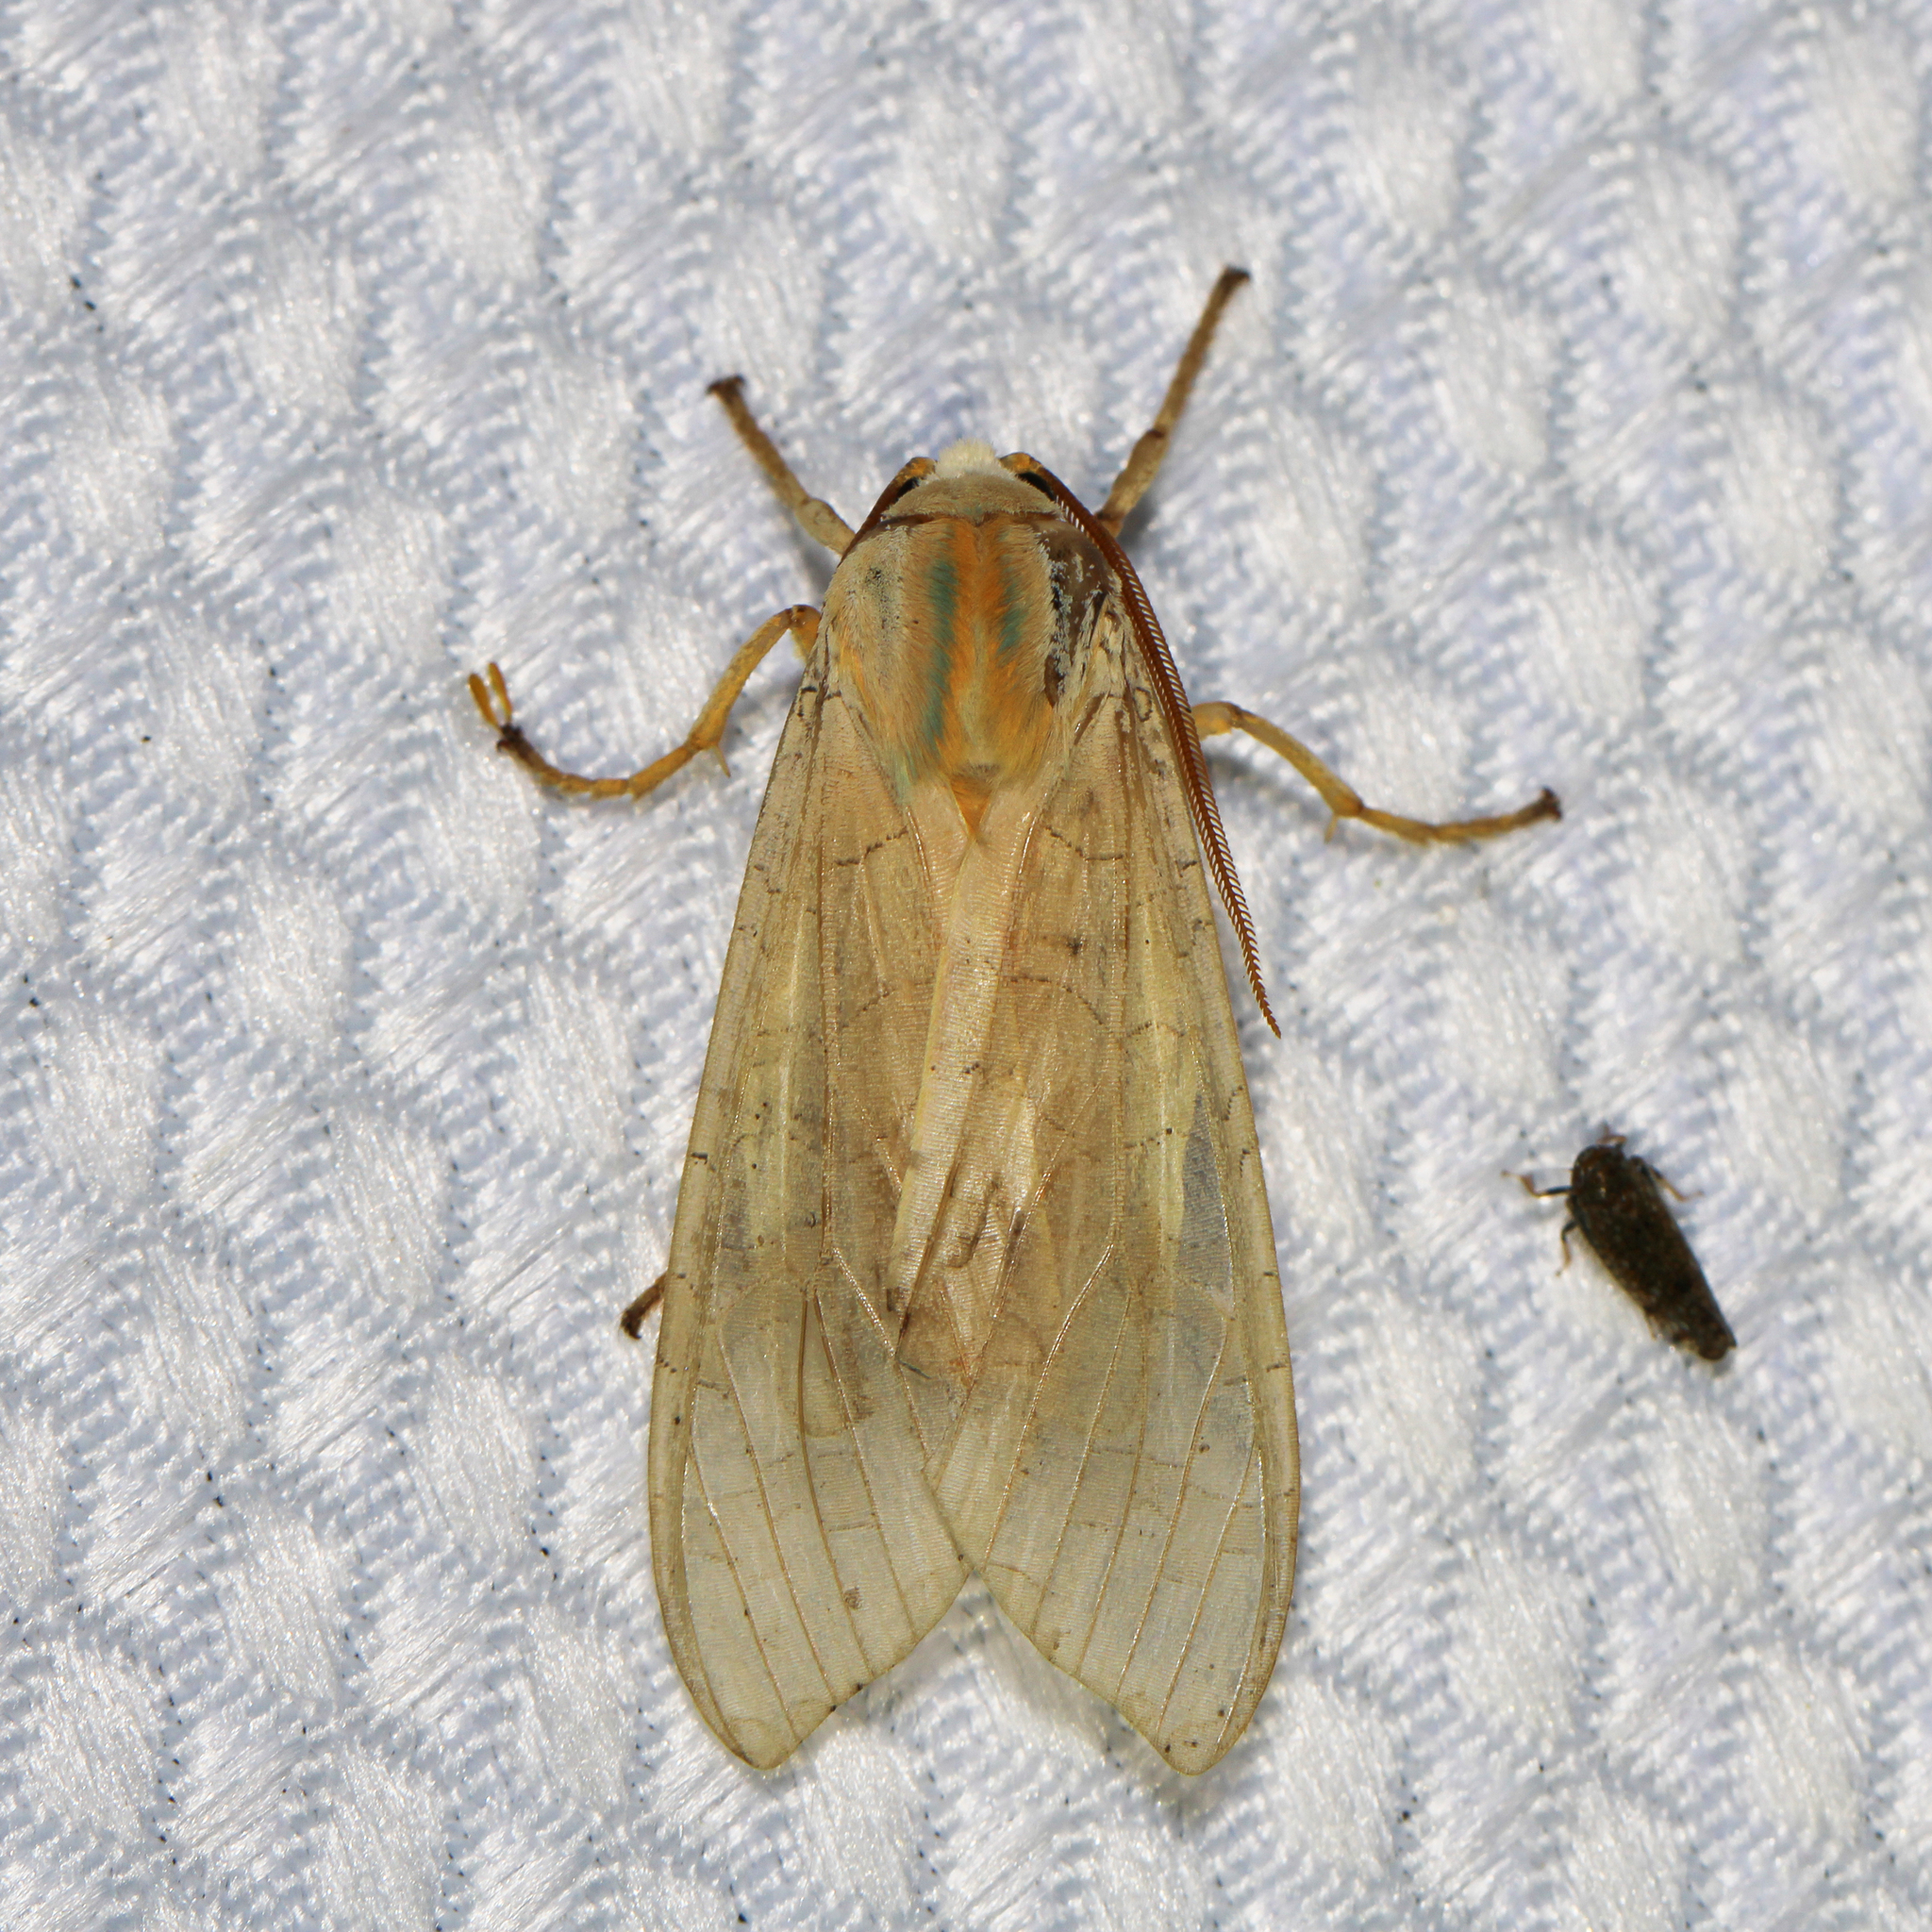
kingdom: Animalia
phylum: Arthropoda
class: Insecta
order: Lepidoptera
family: Erebidae
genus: Halysidota
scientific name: Halysidota
